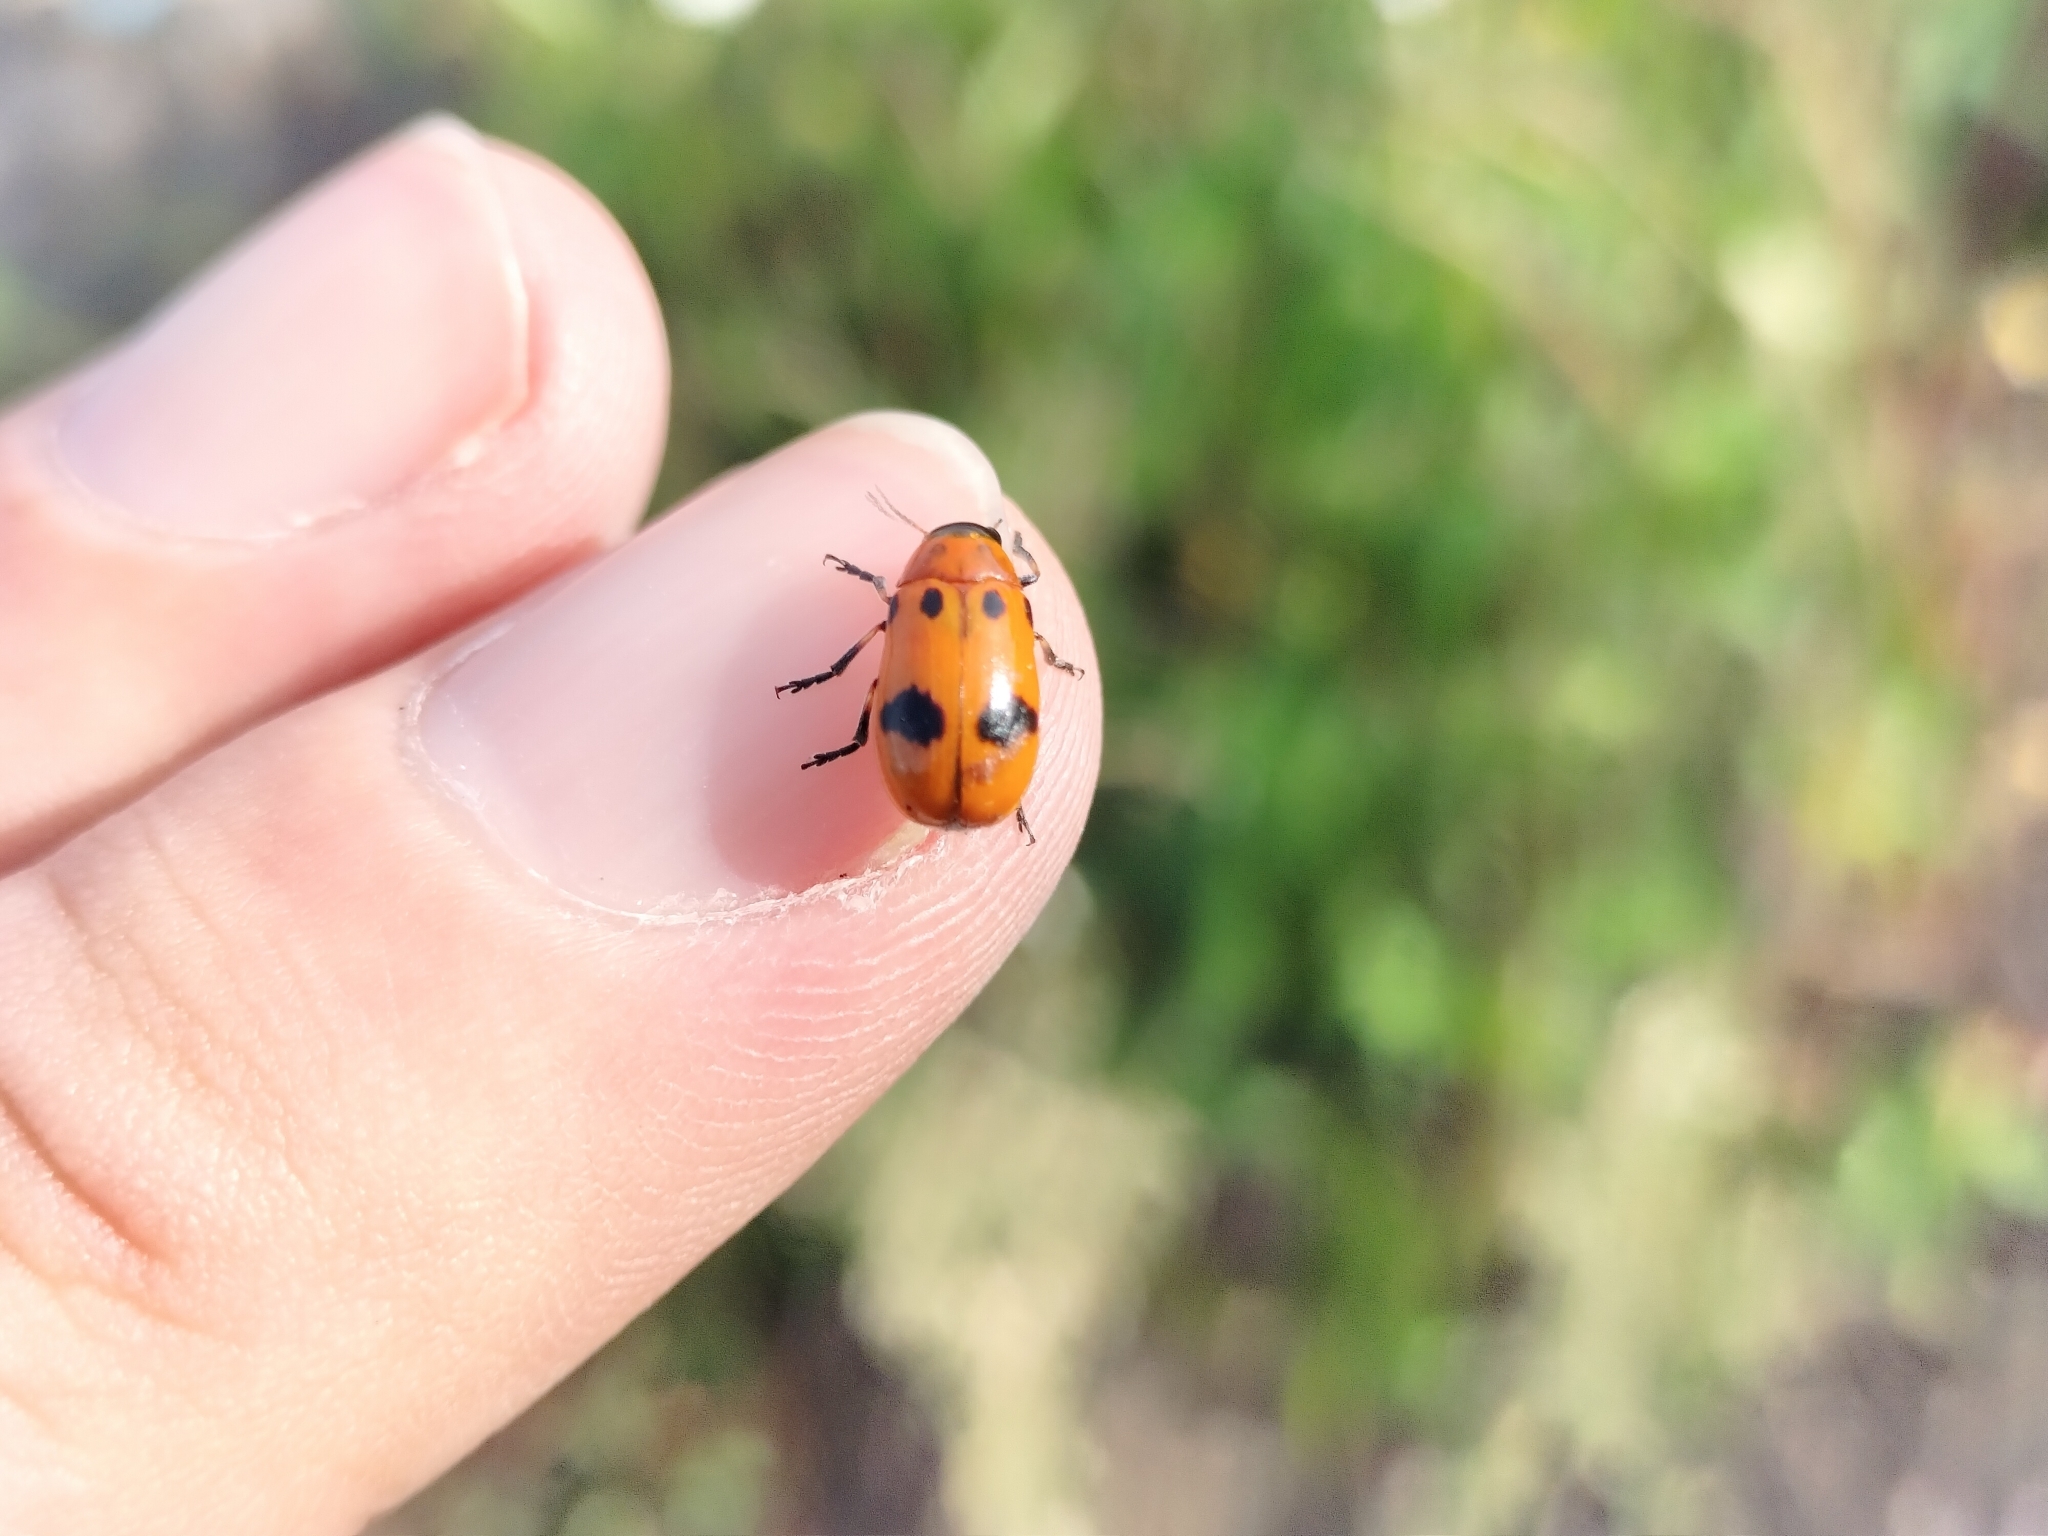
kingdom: Animalia
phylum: Arthropoda
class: Insecta
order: Coleoptera
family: Chrysomelidae
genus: Coptocephala
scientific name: Coptocephala
